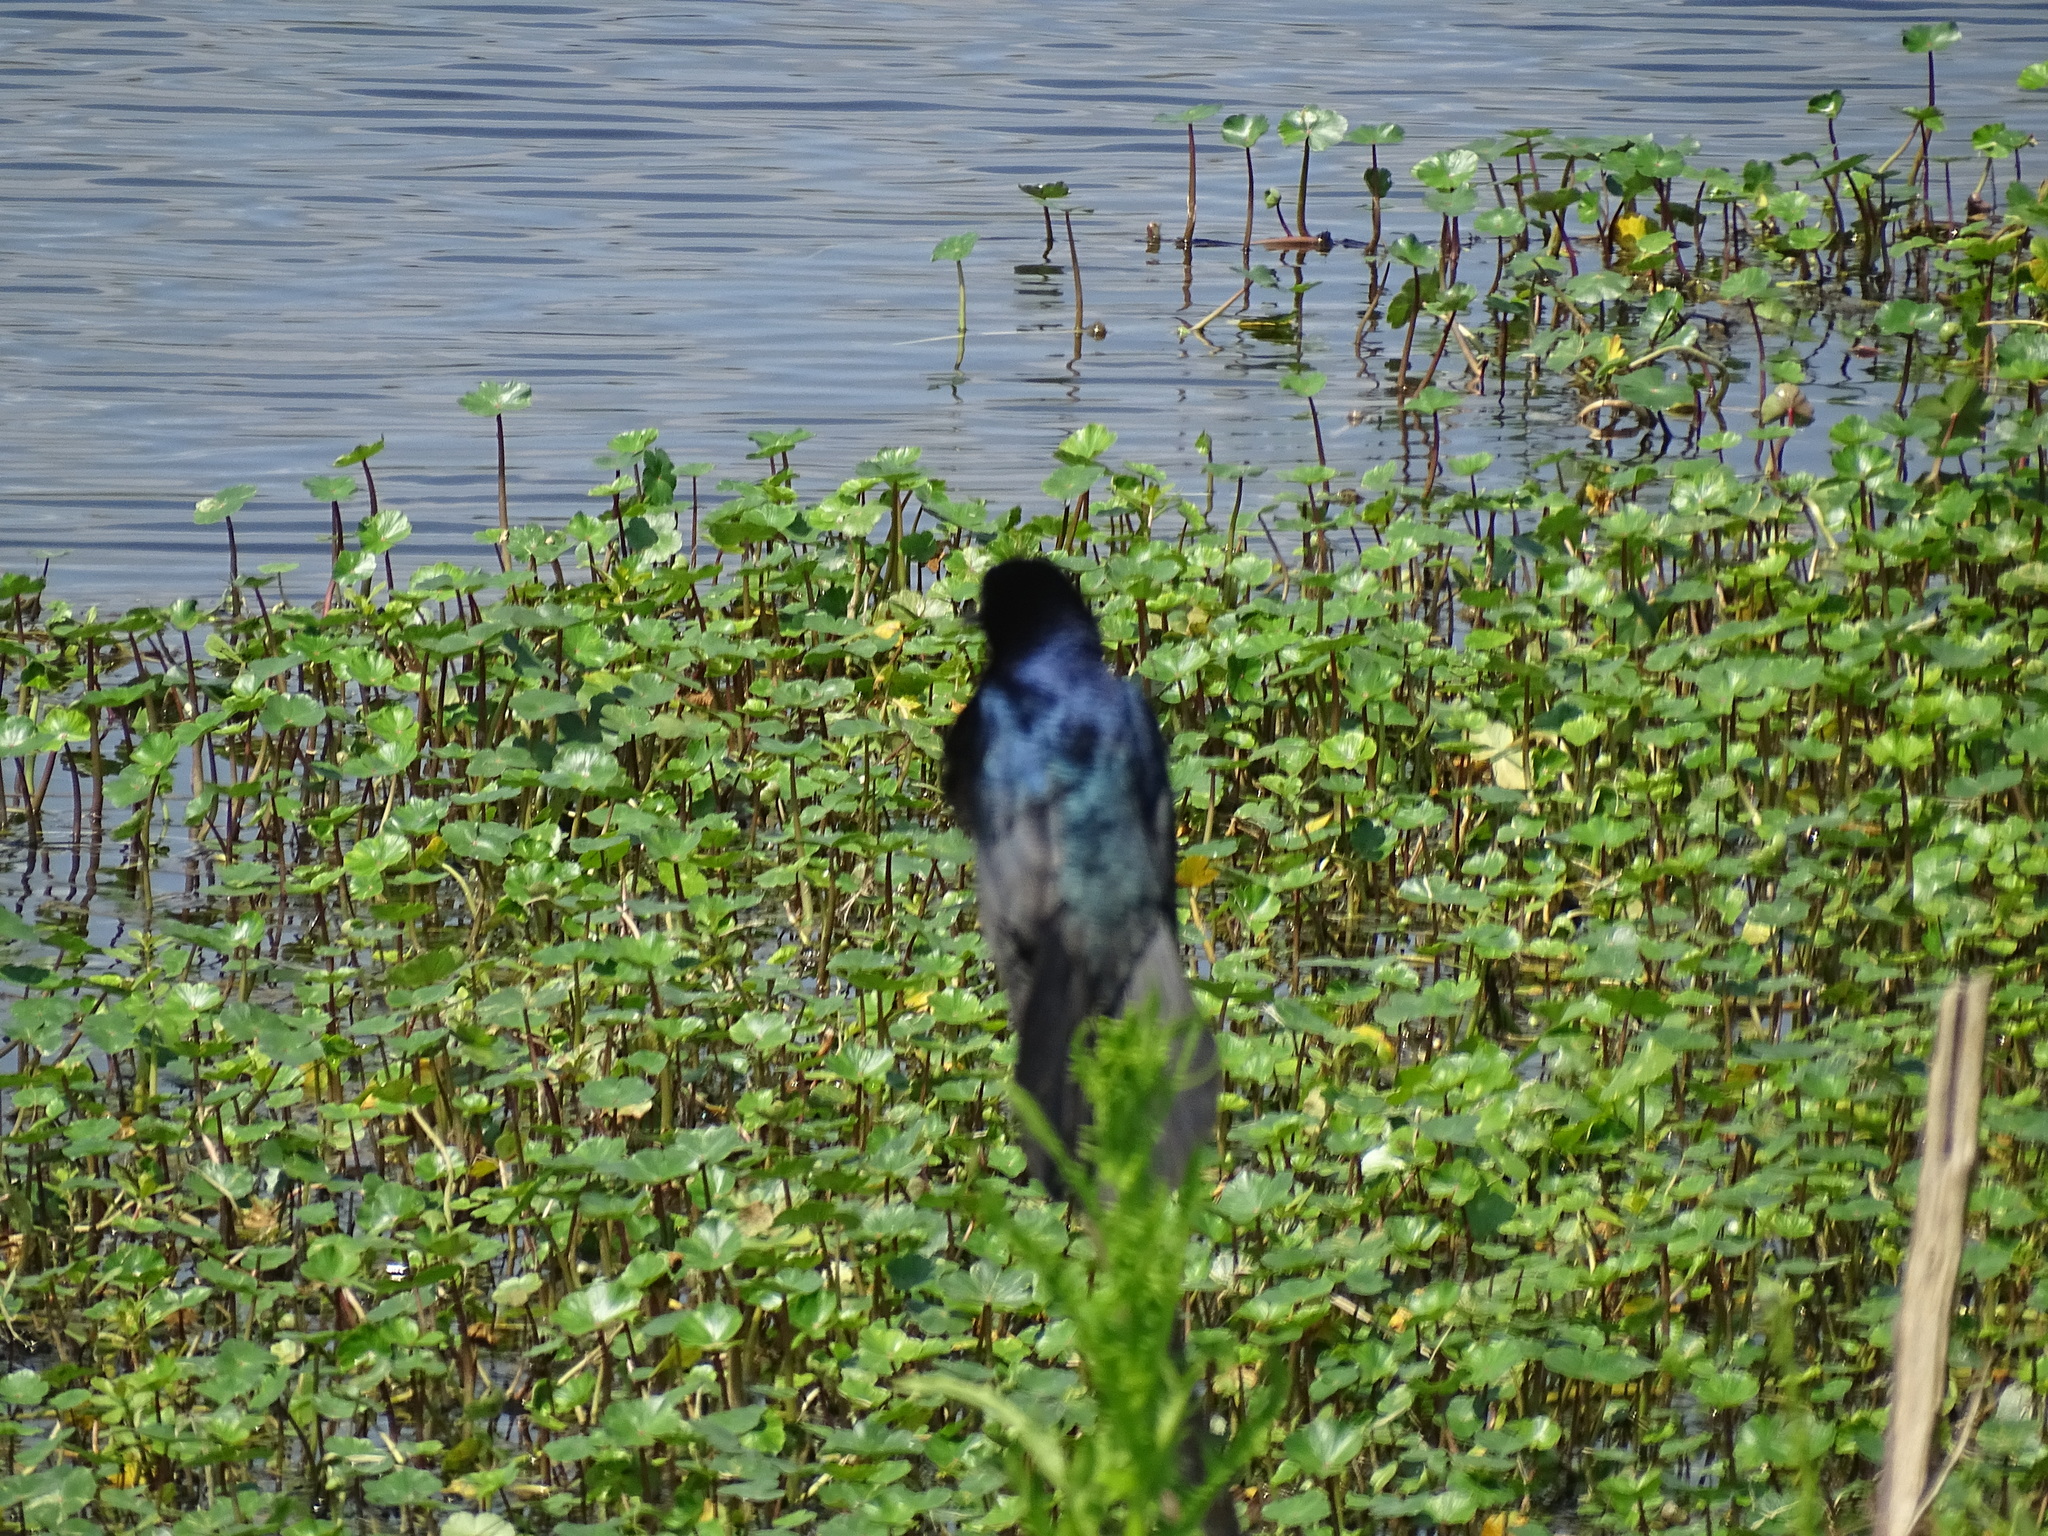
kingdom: Animalia
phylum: Chordata
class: Aves
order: Passeriformes
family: Icteridae
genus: Quiscalus
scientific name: Quiscalus major
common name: Boat-tailed grackle
